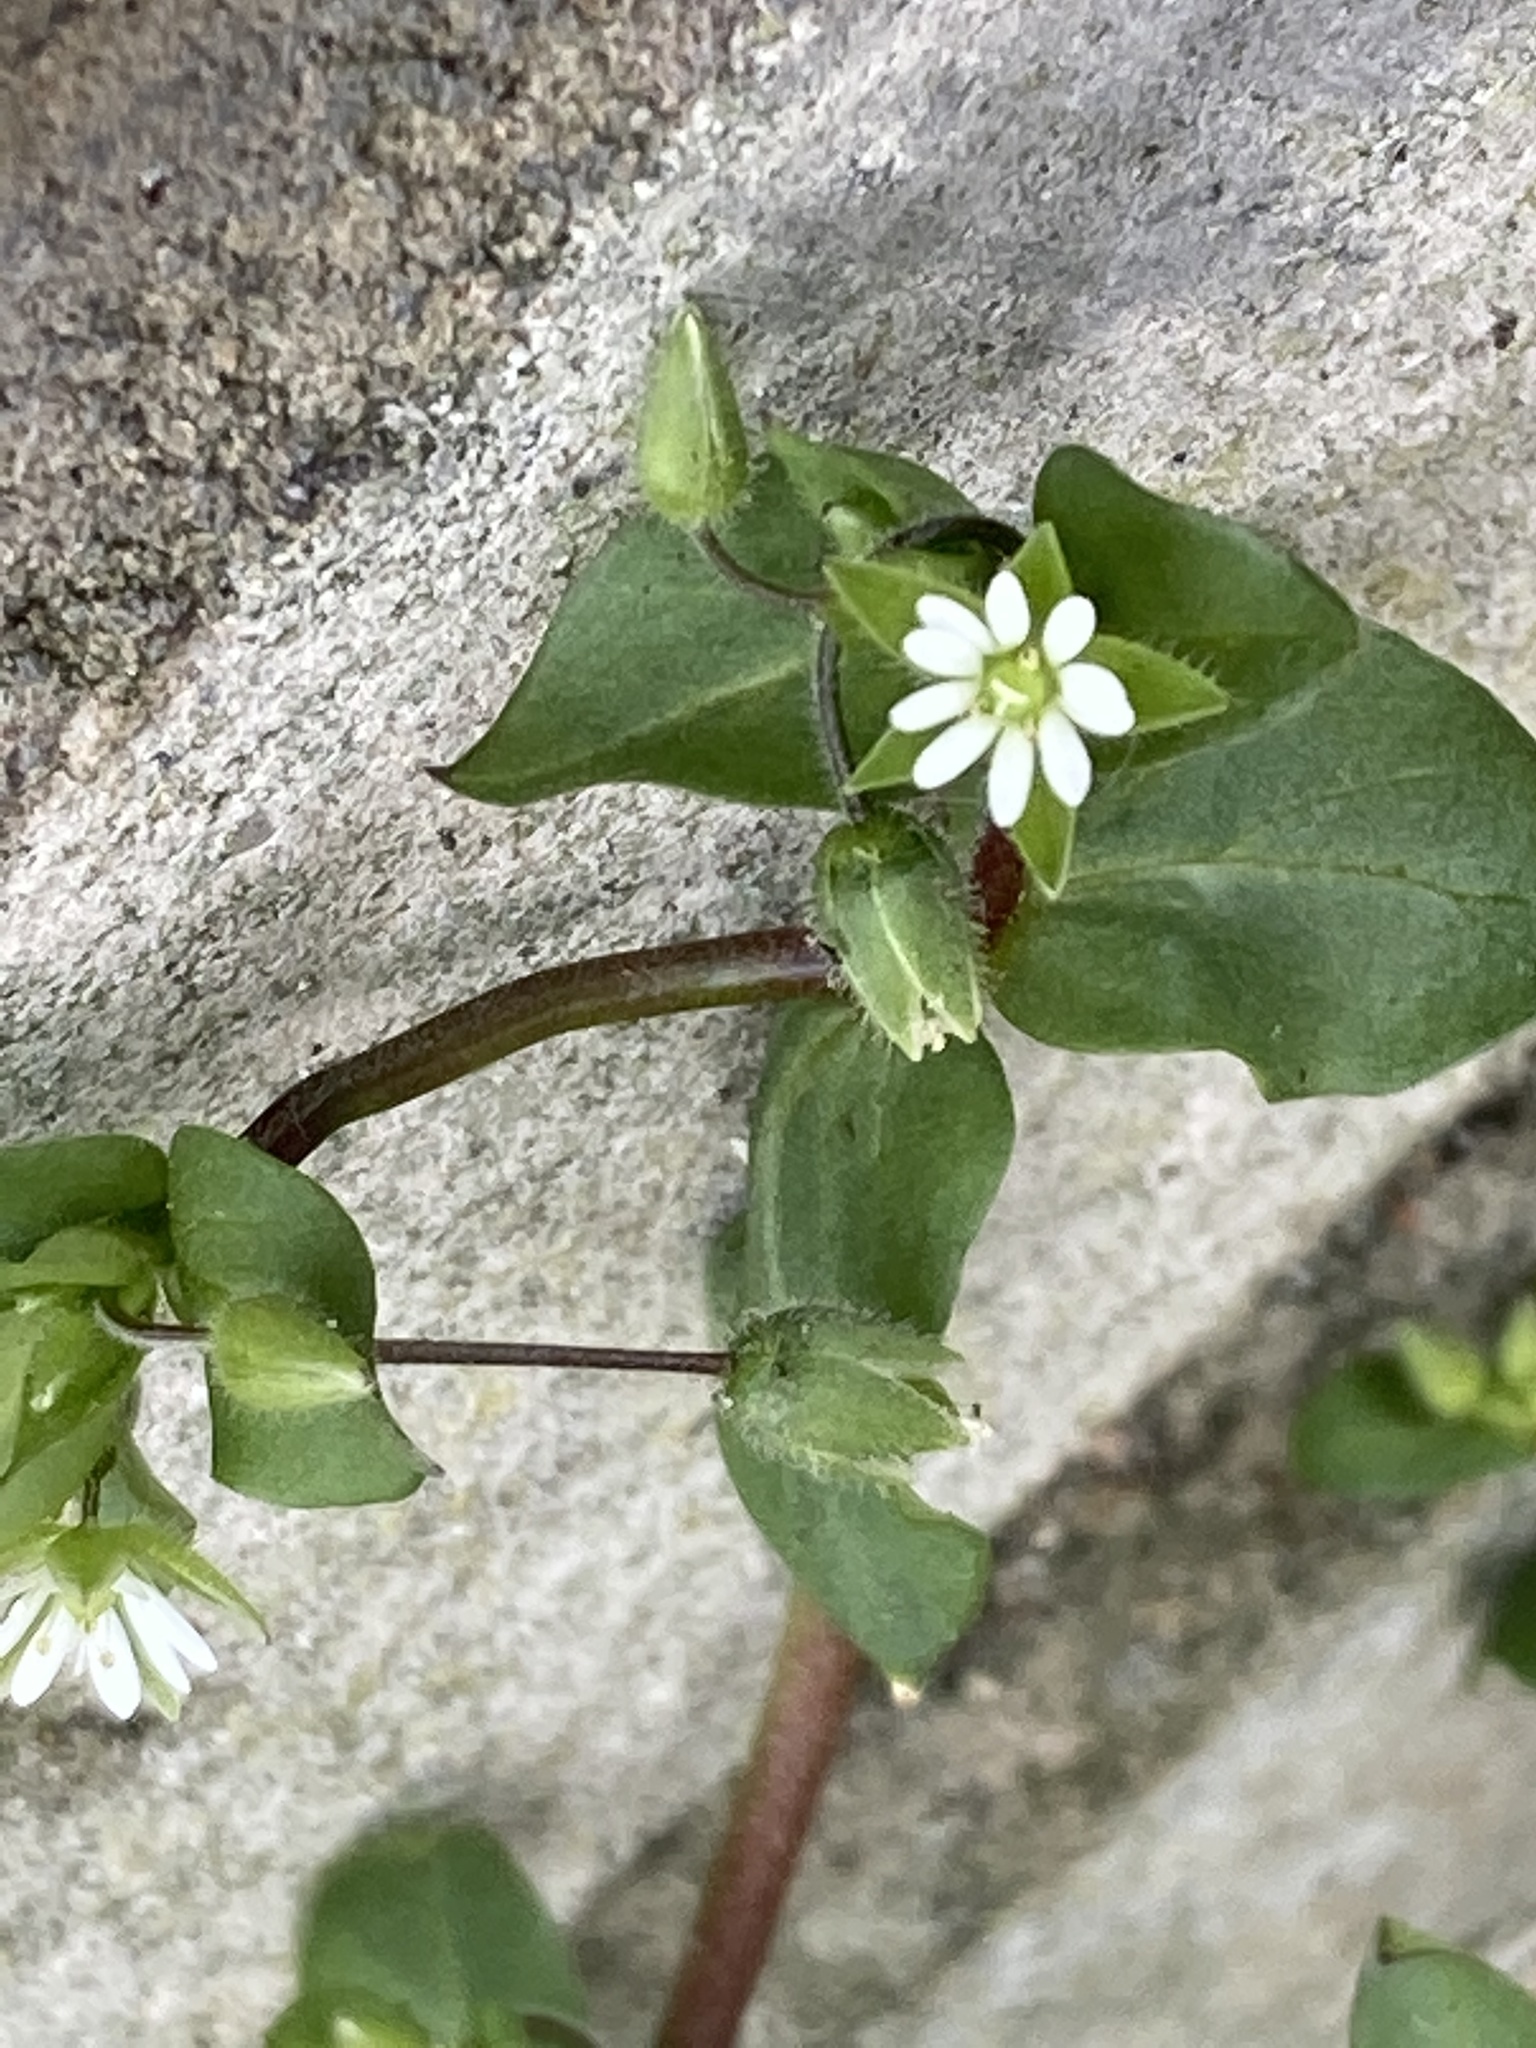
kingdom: Plantae
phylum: Tracheophyta
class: Magnoliopsida
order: Caryophyllales
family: Caryophyllaceae
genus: Stellaria
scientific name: Stellaria media
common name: Common chickweed
